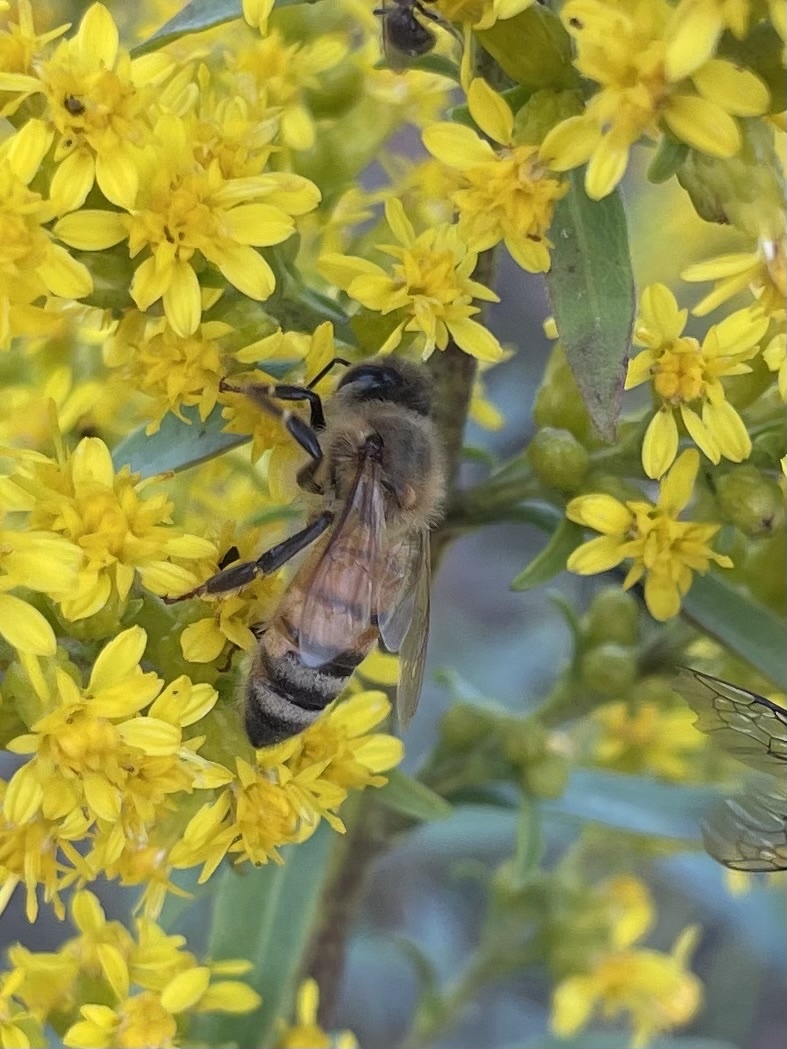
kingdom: Animalia
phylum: Arthropoda
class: Insecta
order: Hymenoptera
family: Apidae
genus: Apis
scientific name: Apis mellifera
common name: Honey bee
